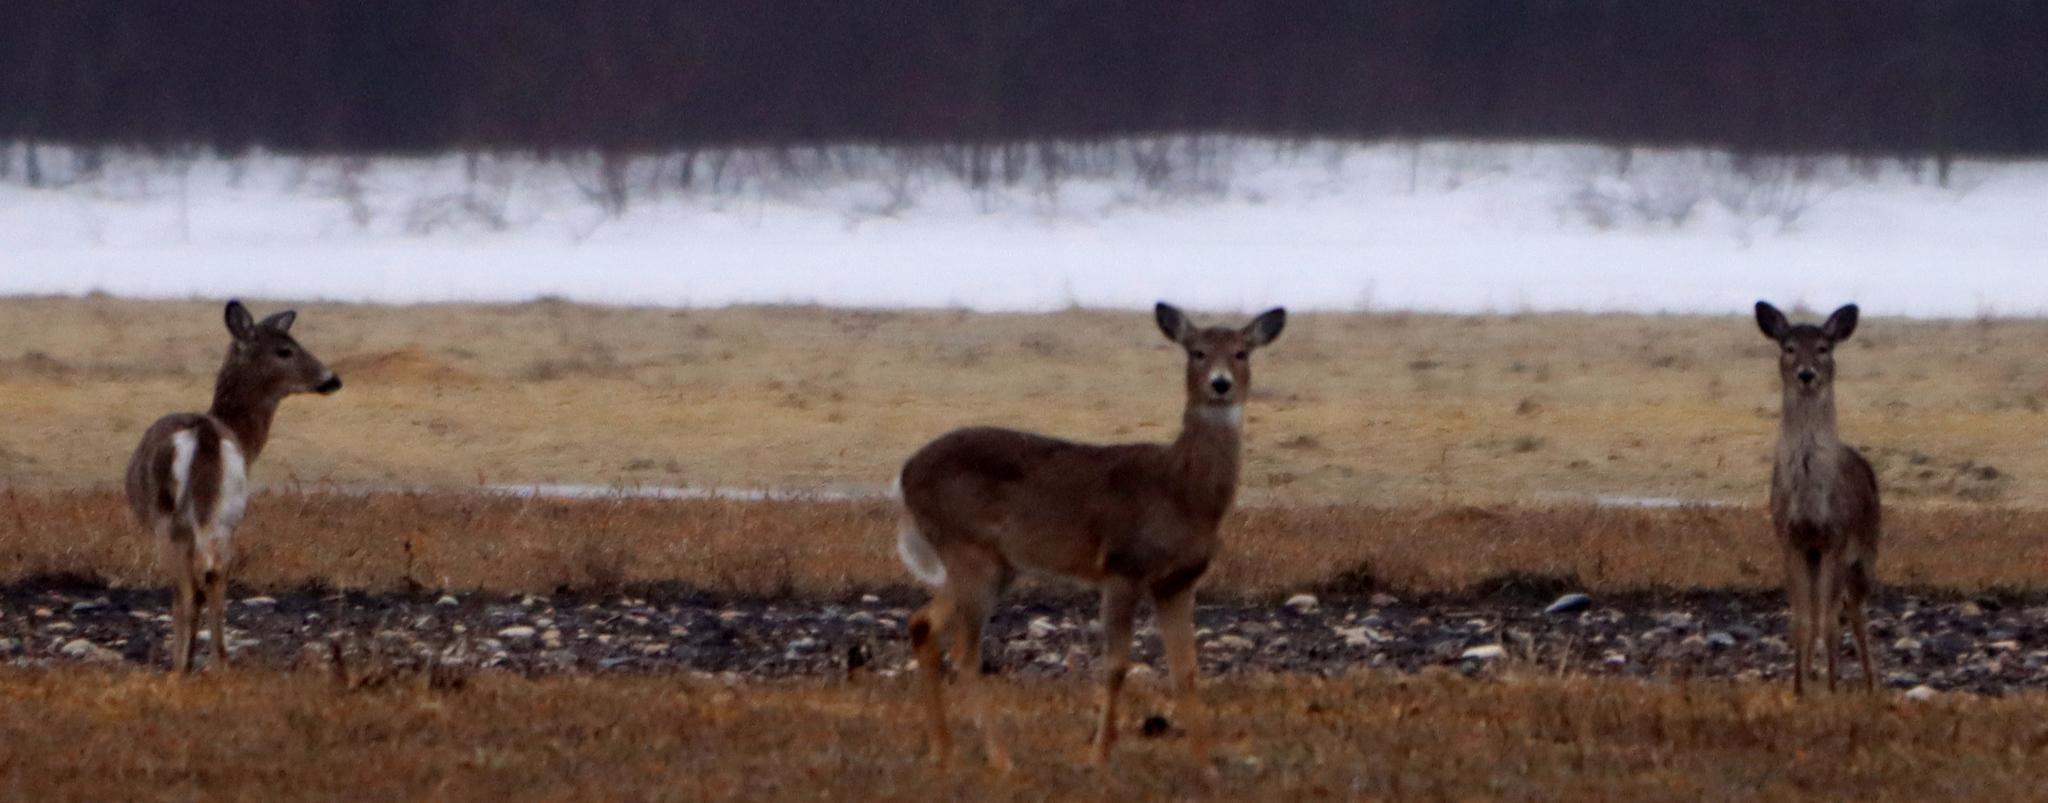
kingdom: Animalia
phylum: Chordata
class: Mammalia
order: Artiodactyla
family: Cervidae
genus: Odocoileus
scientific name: Odocoileus virginianus
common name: White-tailed deer
